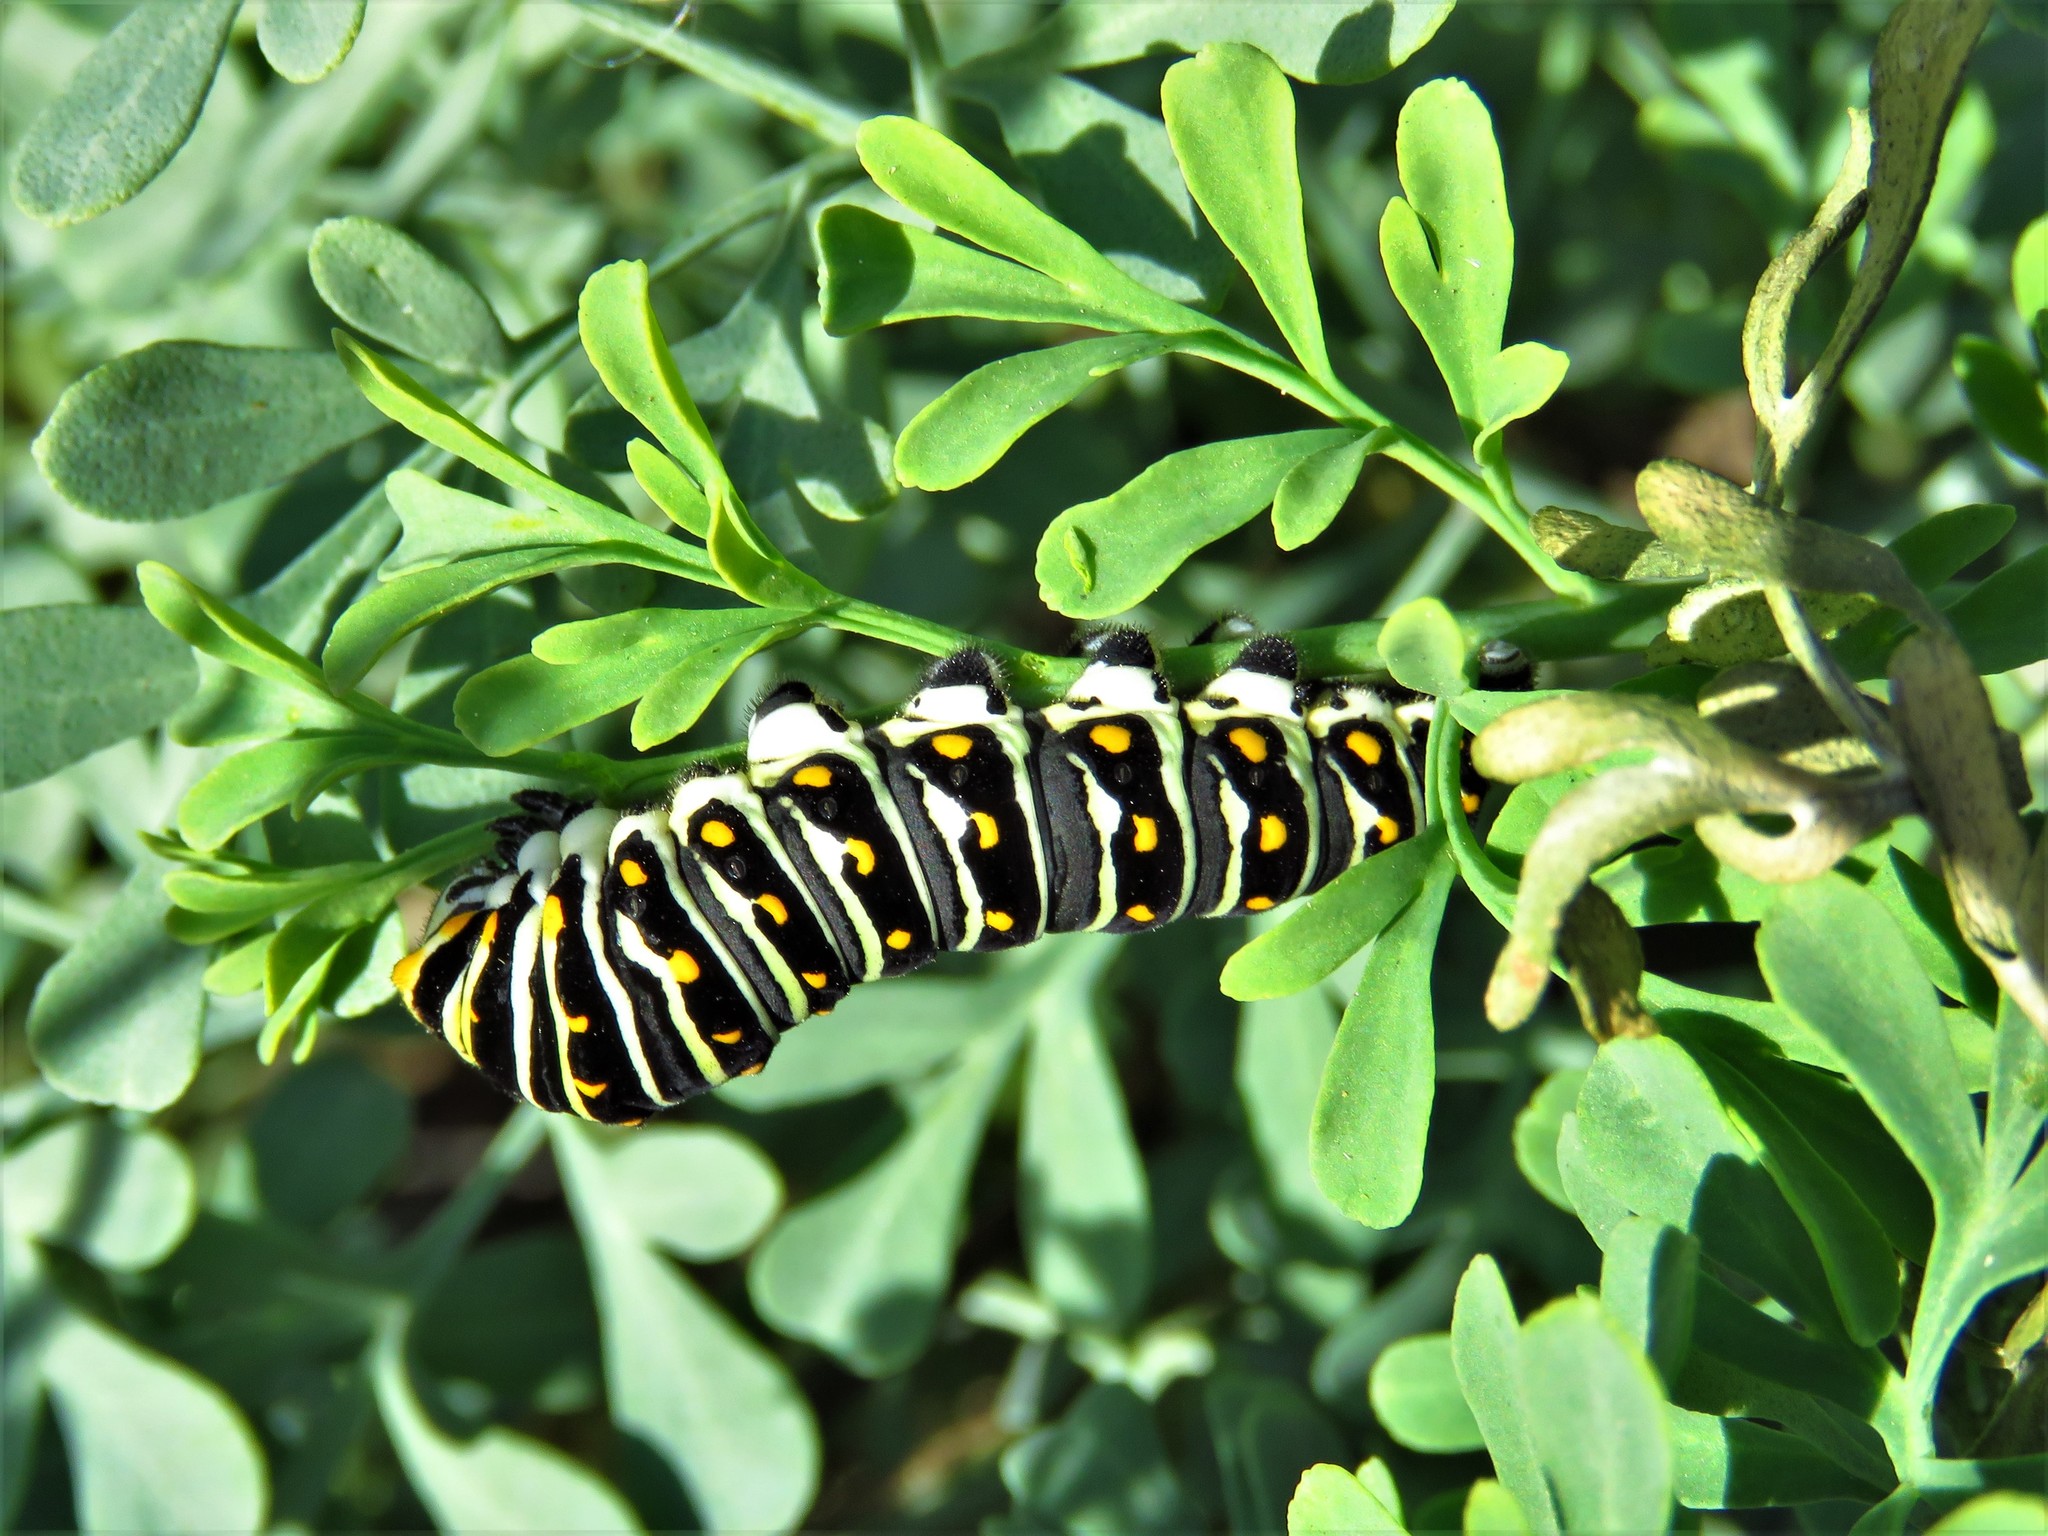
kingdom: Animalia
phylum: Arthropoda
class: Insecta
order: Lepidoptera
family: Papilionidae
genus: Papilio
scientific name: Papilio polyxenes
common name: Black swallowtail
